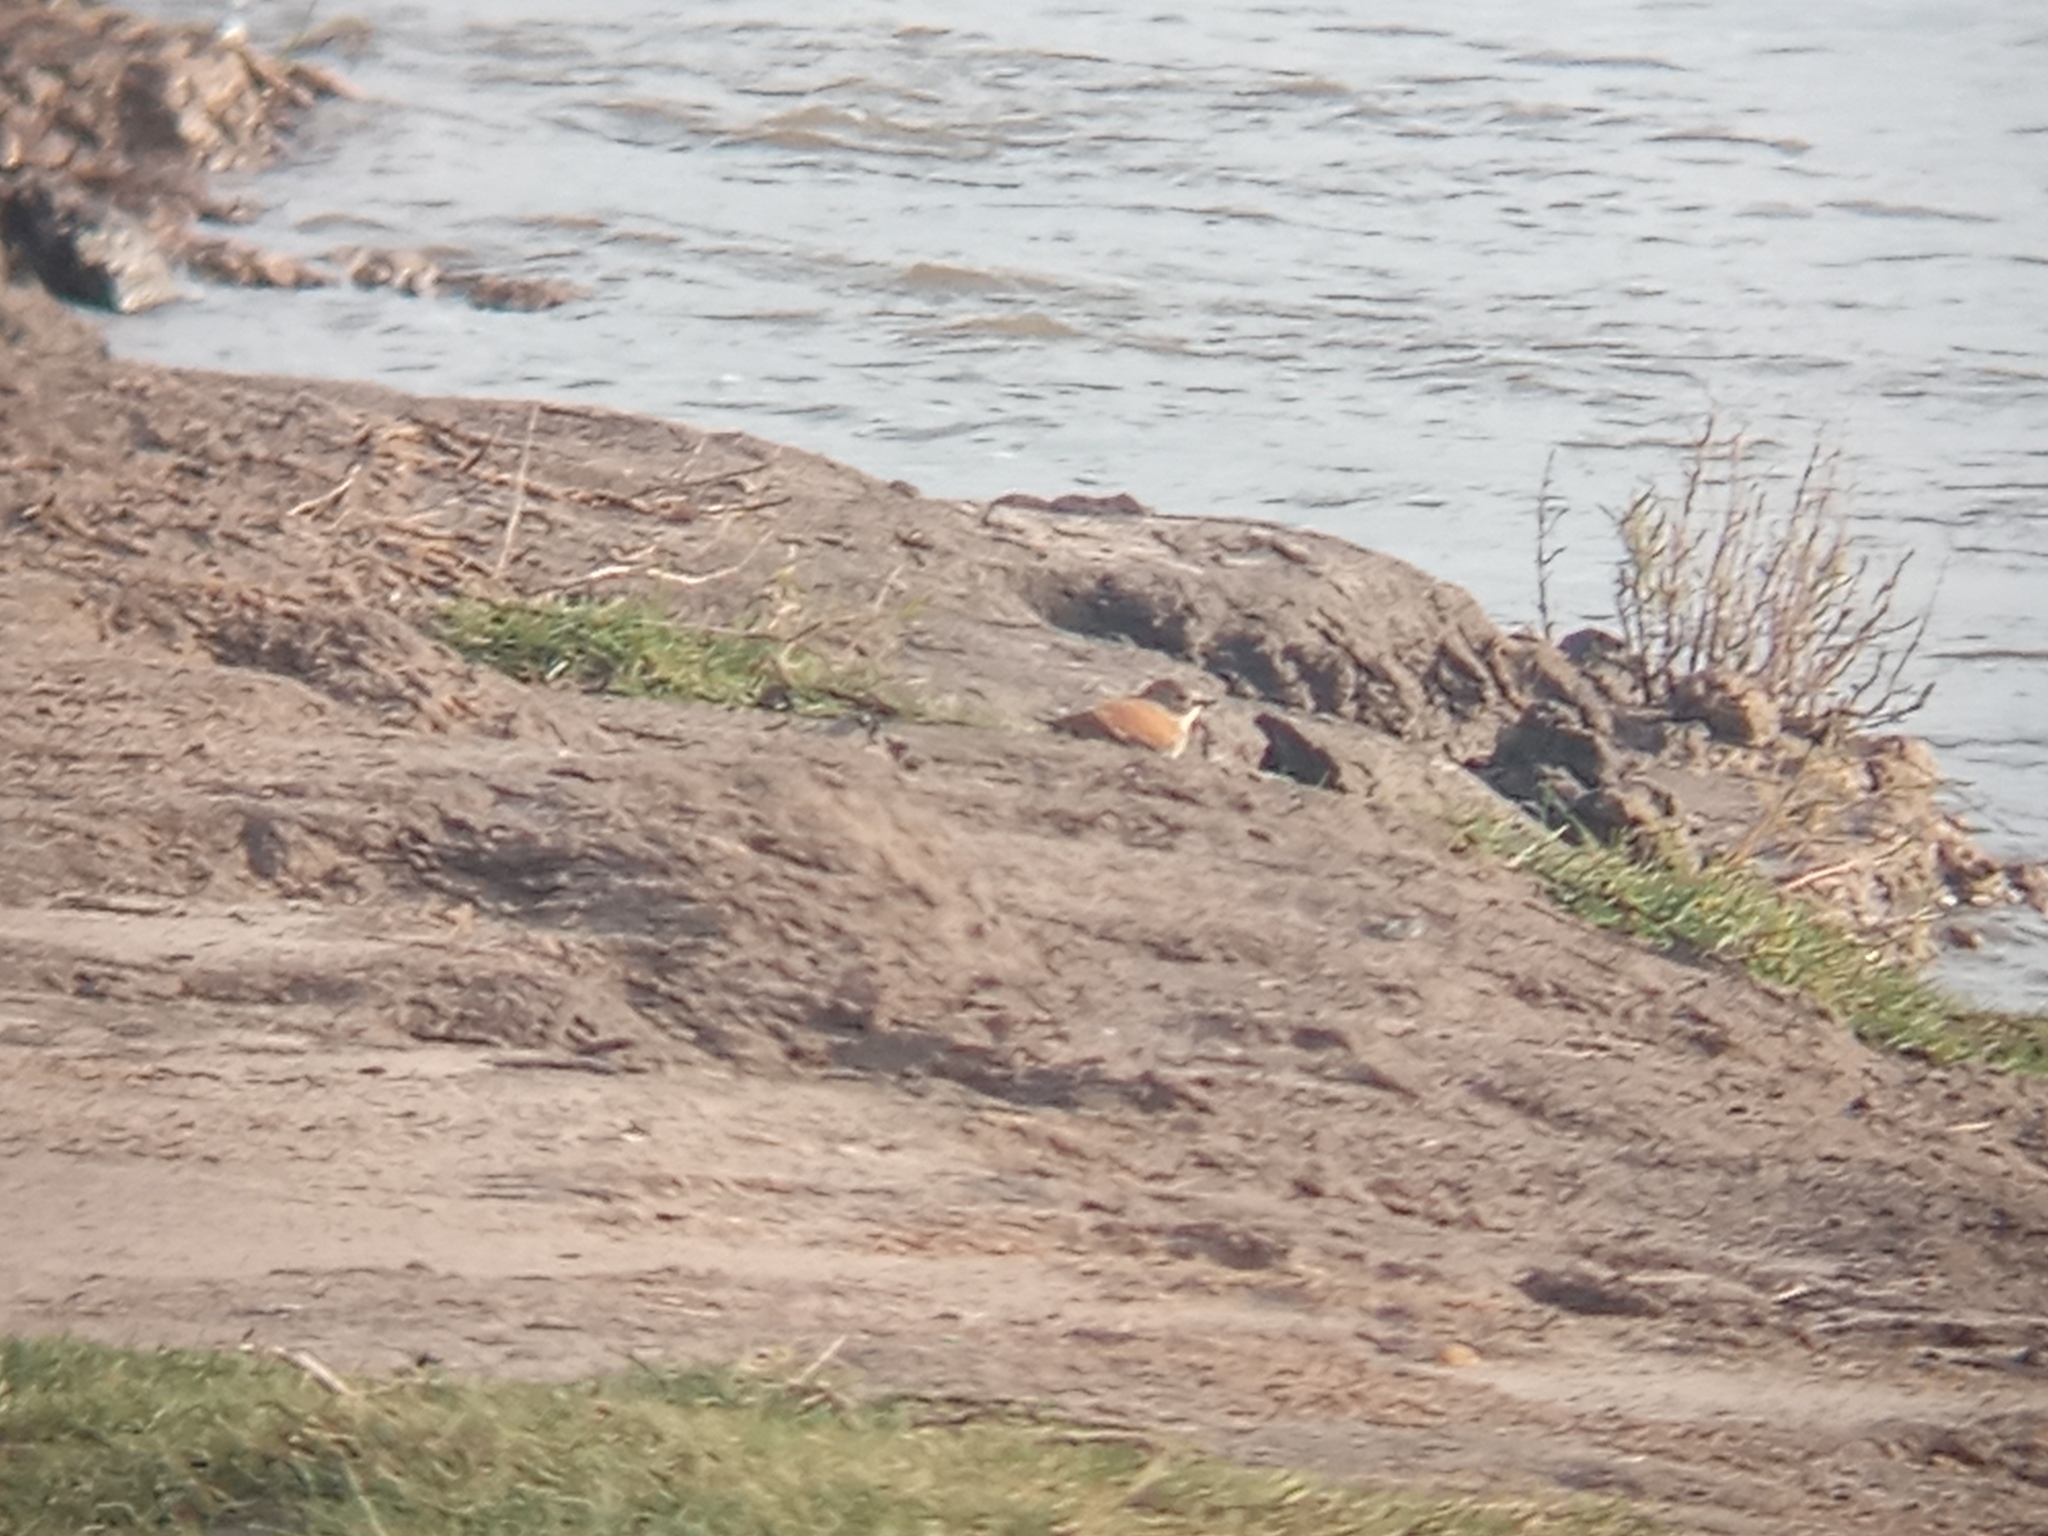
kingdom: Animalia
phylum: Chordata
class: Aves
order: Passeriformes
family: Tyrannidae
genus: Lessonia
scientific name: Lessonia rufa
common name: Austral negrito
